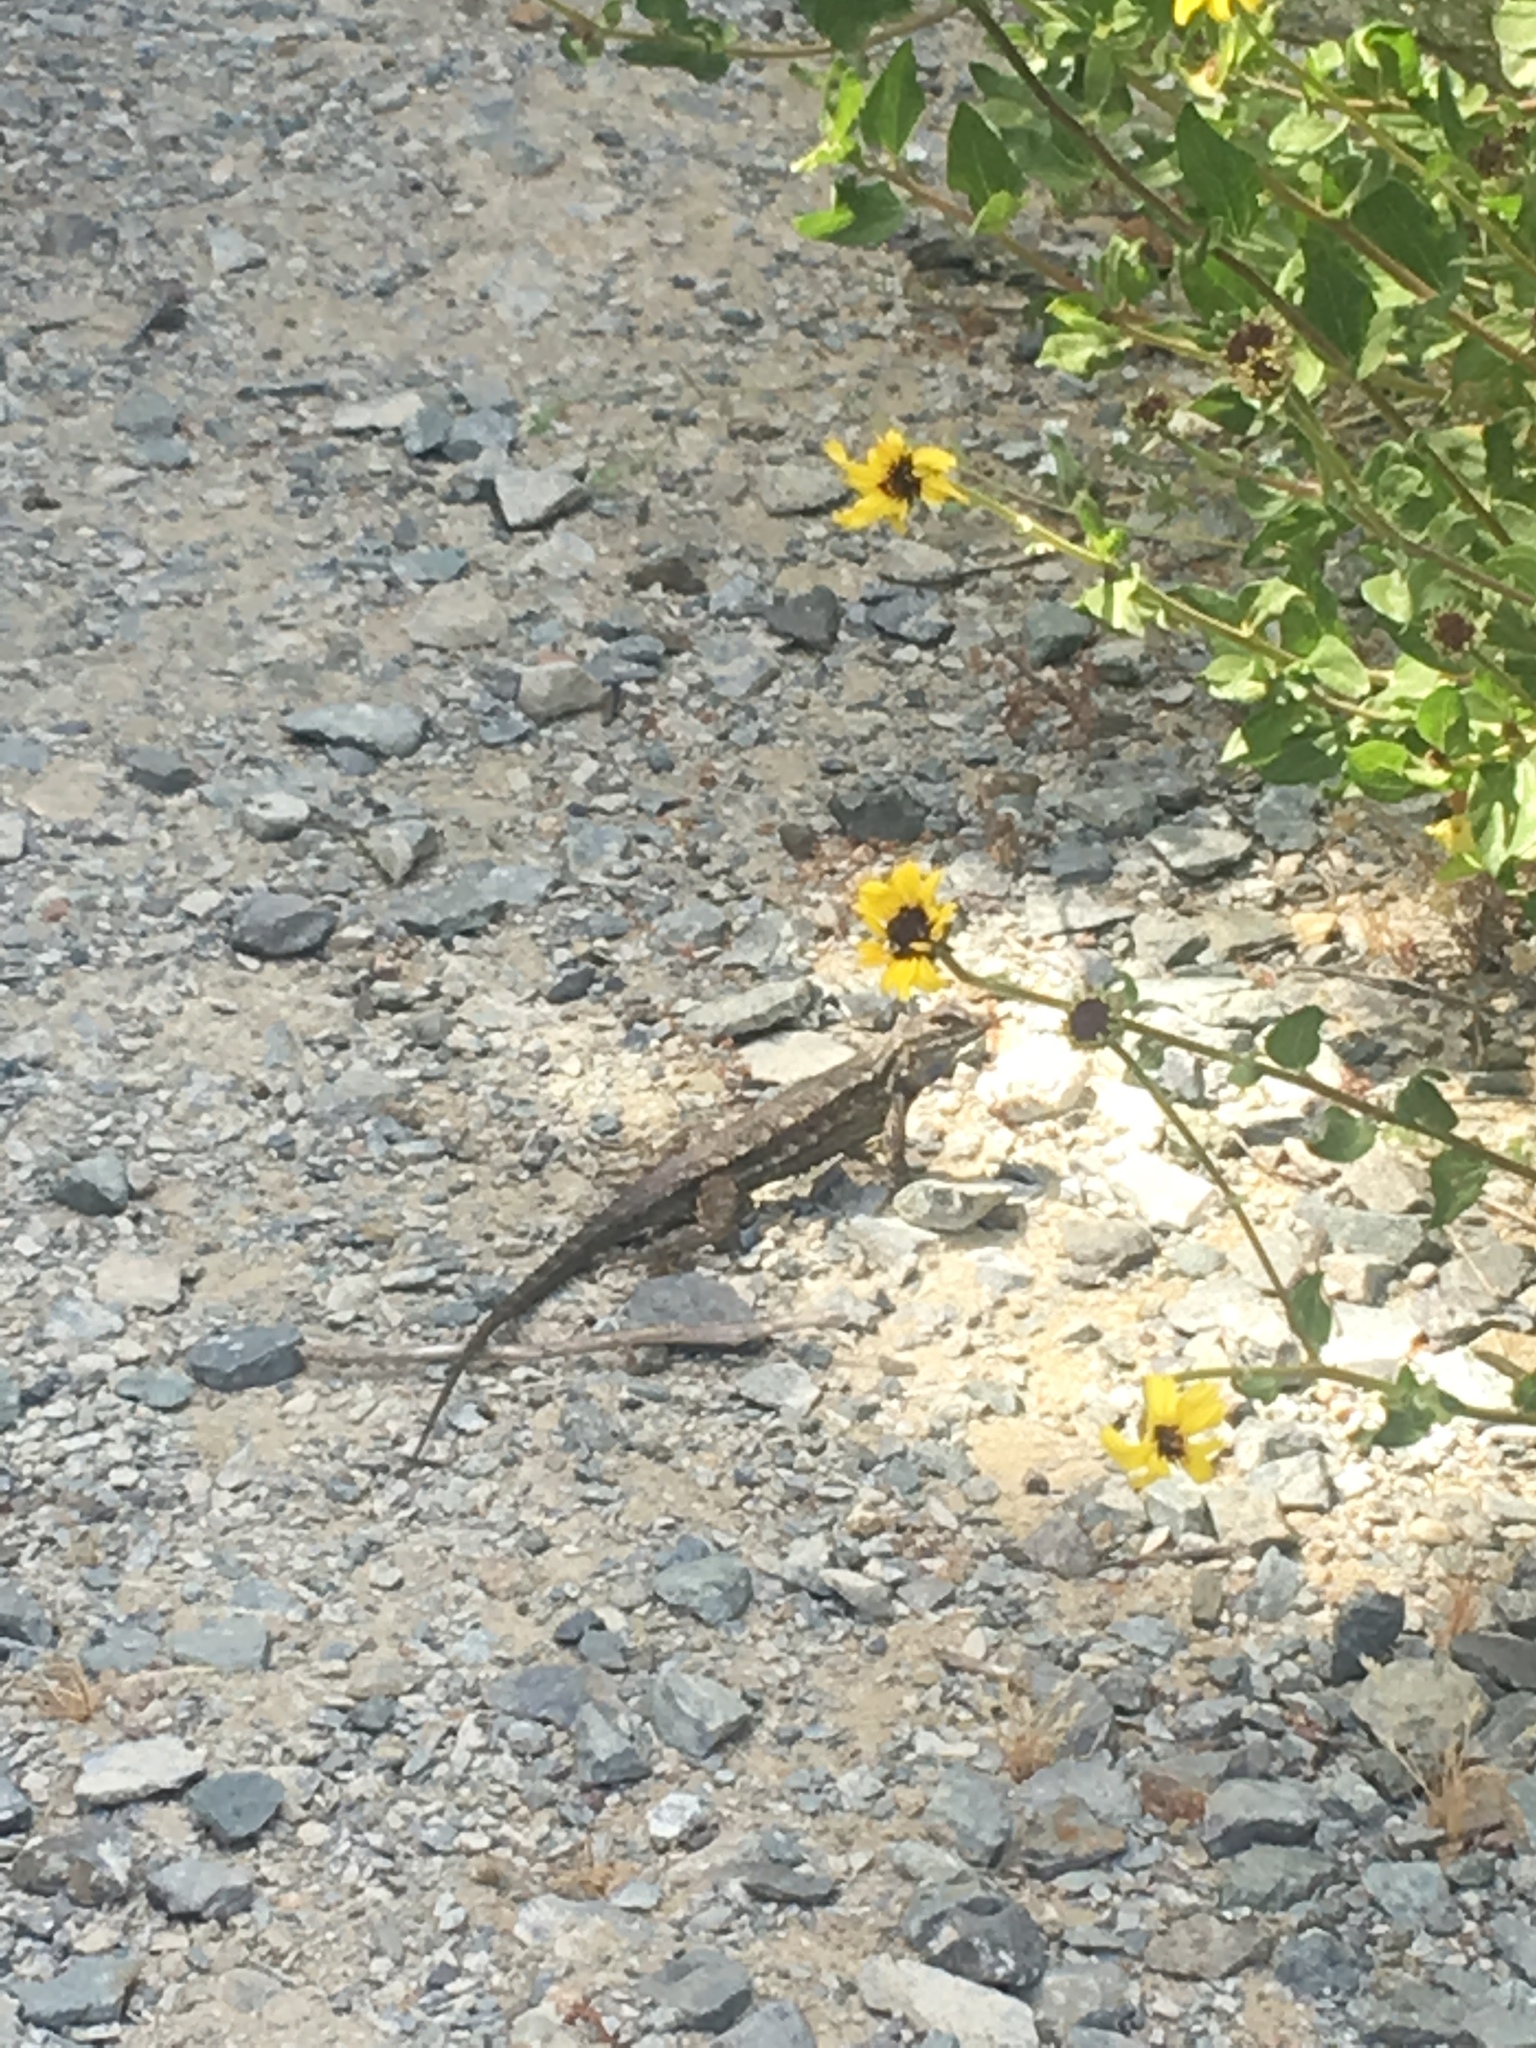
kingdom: Animalia
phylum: Chordata
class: Squamata
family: Phrynosomatidae
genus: Sceloporus
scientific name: Sceloporus occidentalis
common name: Western fence lizard
